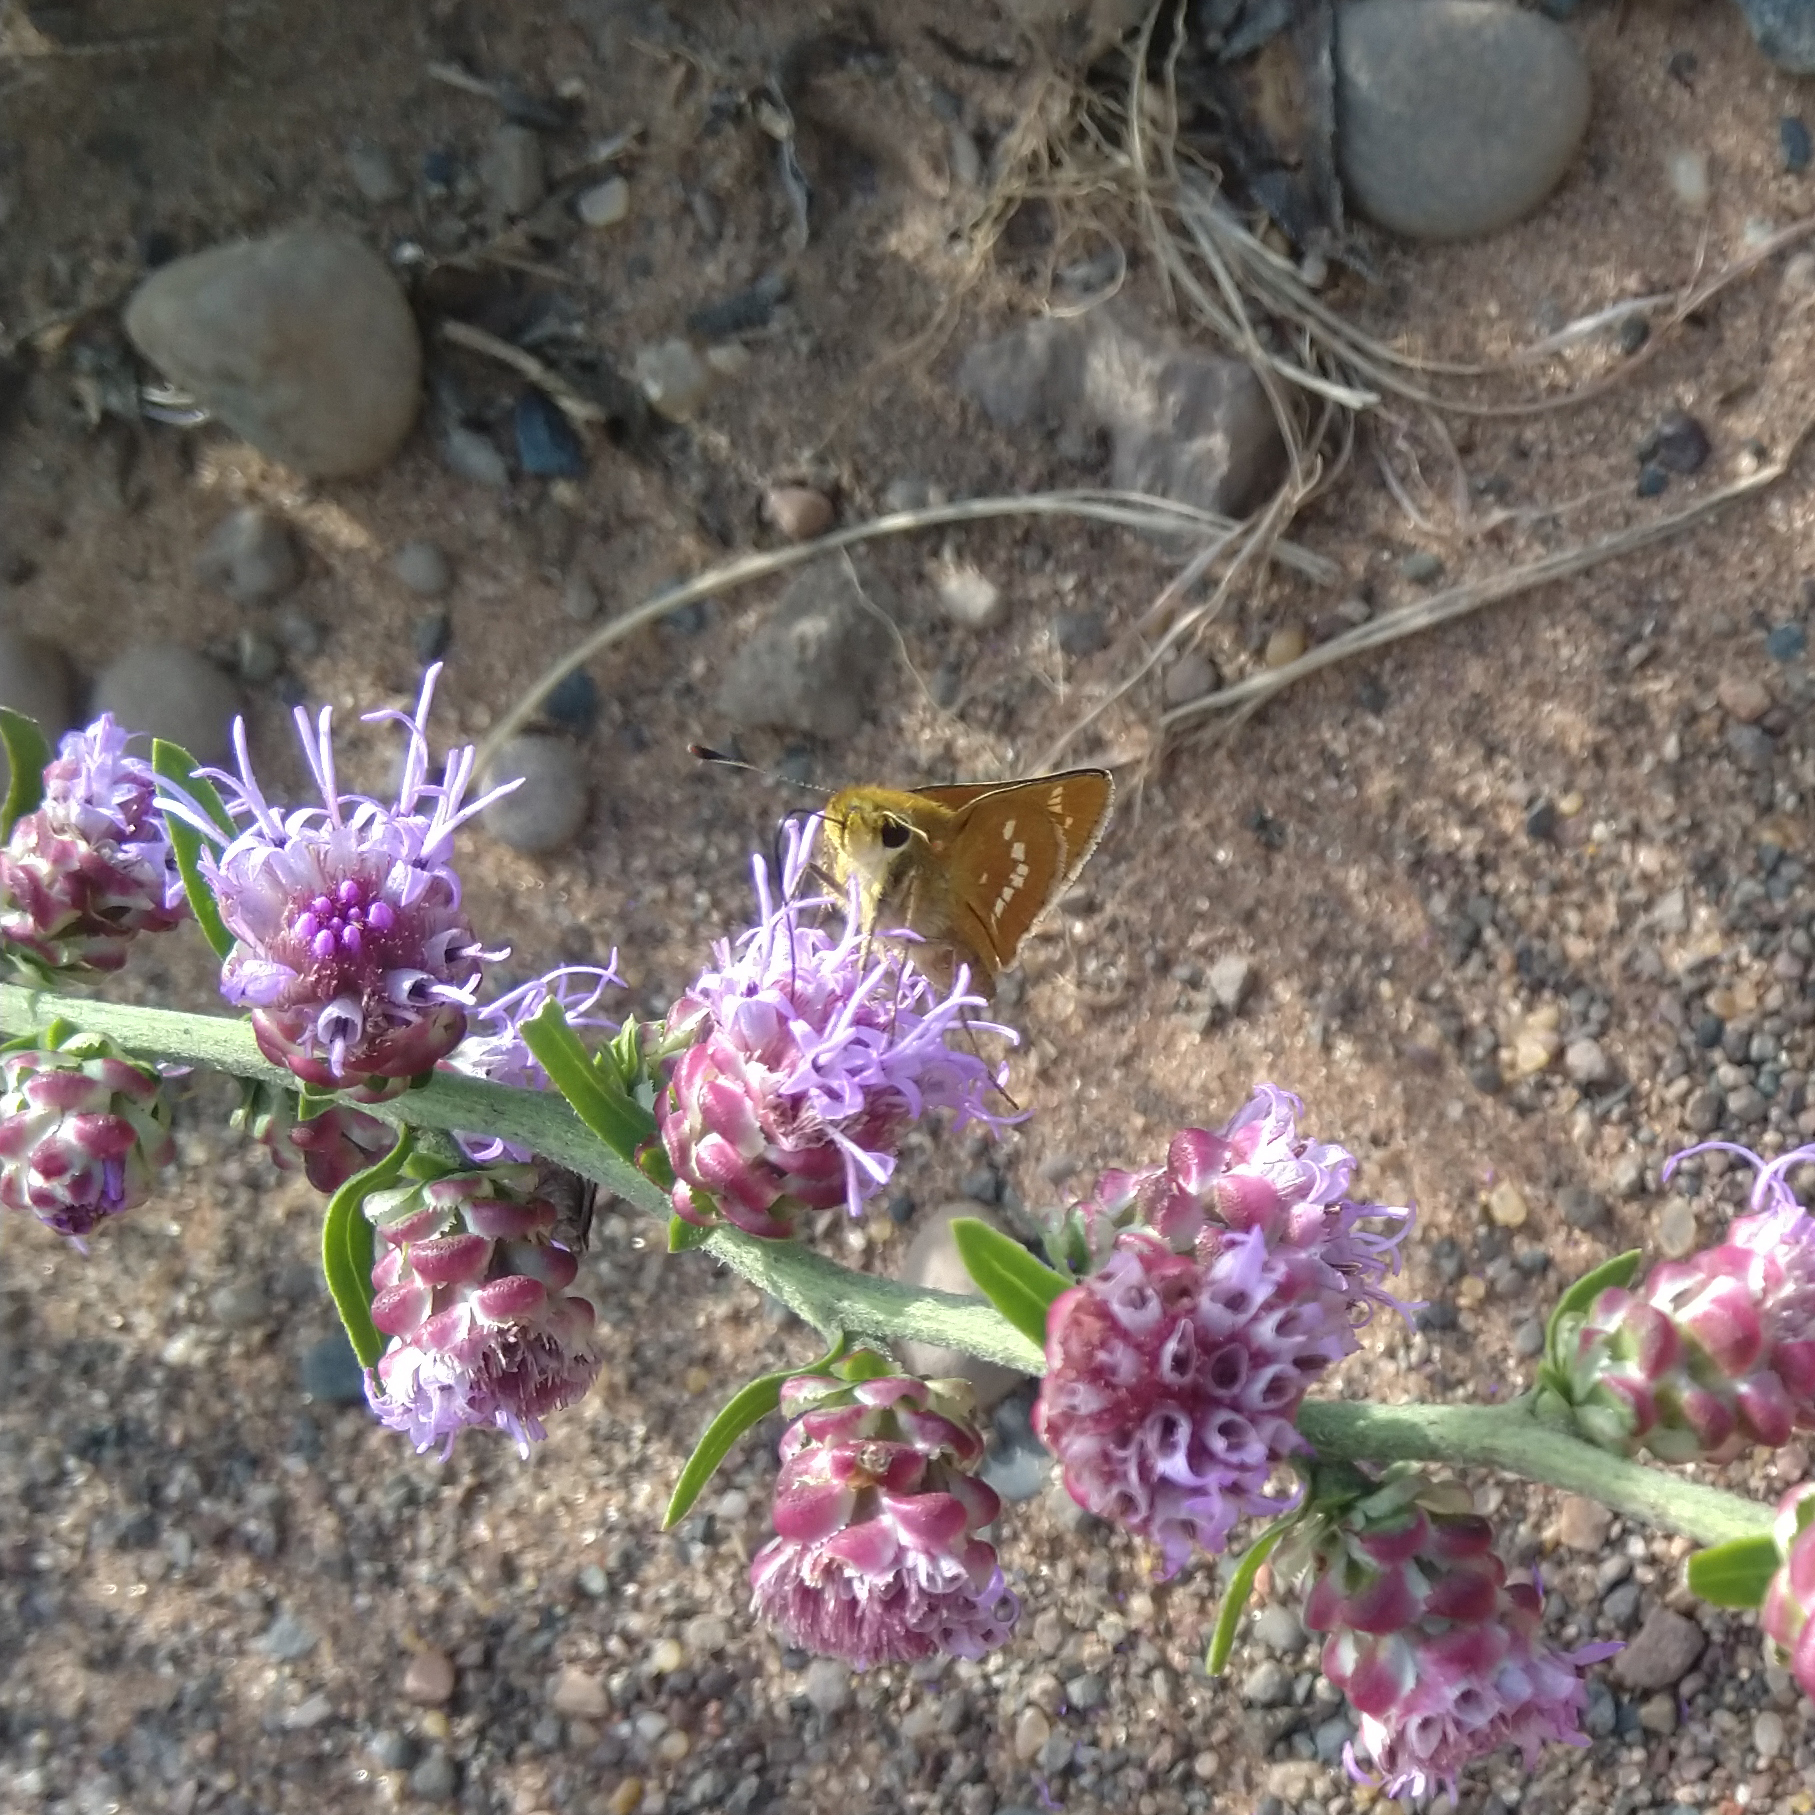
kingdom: Animalia
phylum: Arthropoda
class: Insecta
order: Lepidoptera
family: Hesperiidae
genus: Hesperia
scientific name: Hesperia leonardus
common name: Leonard's skipper
